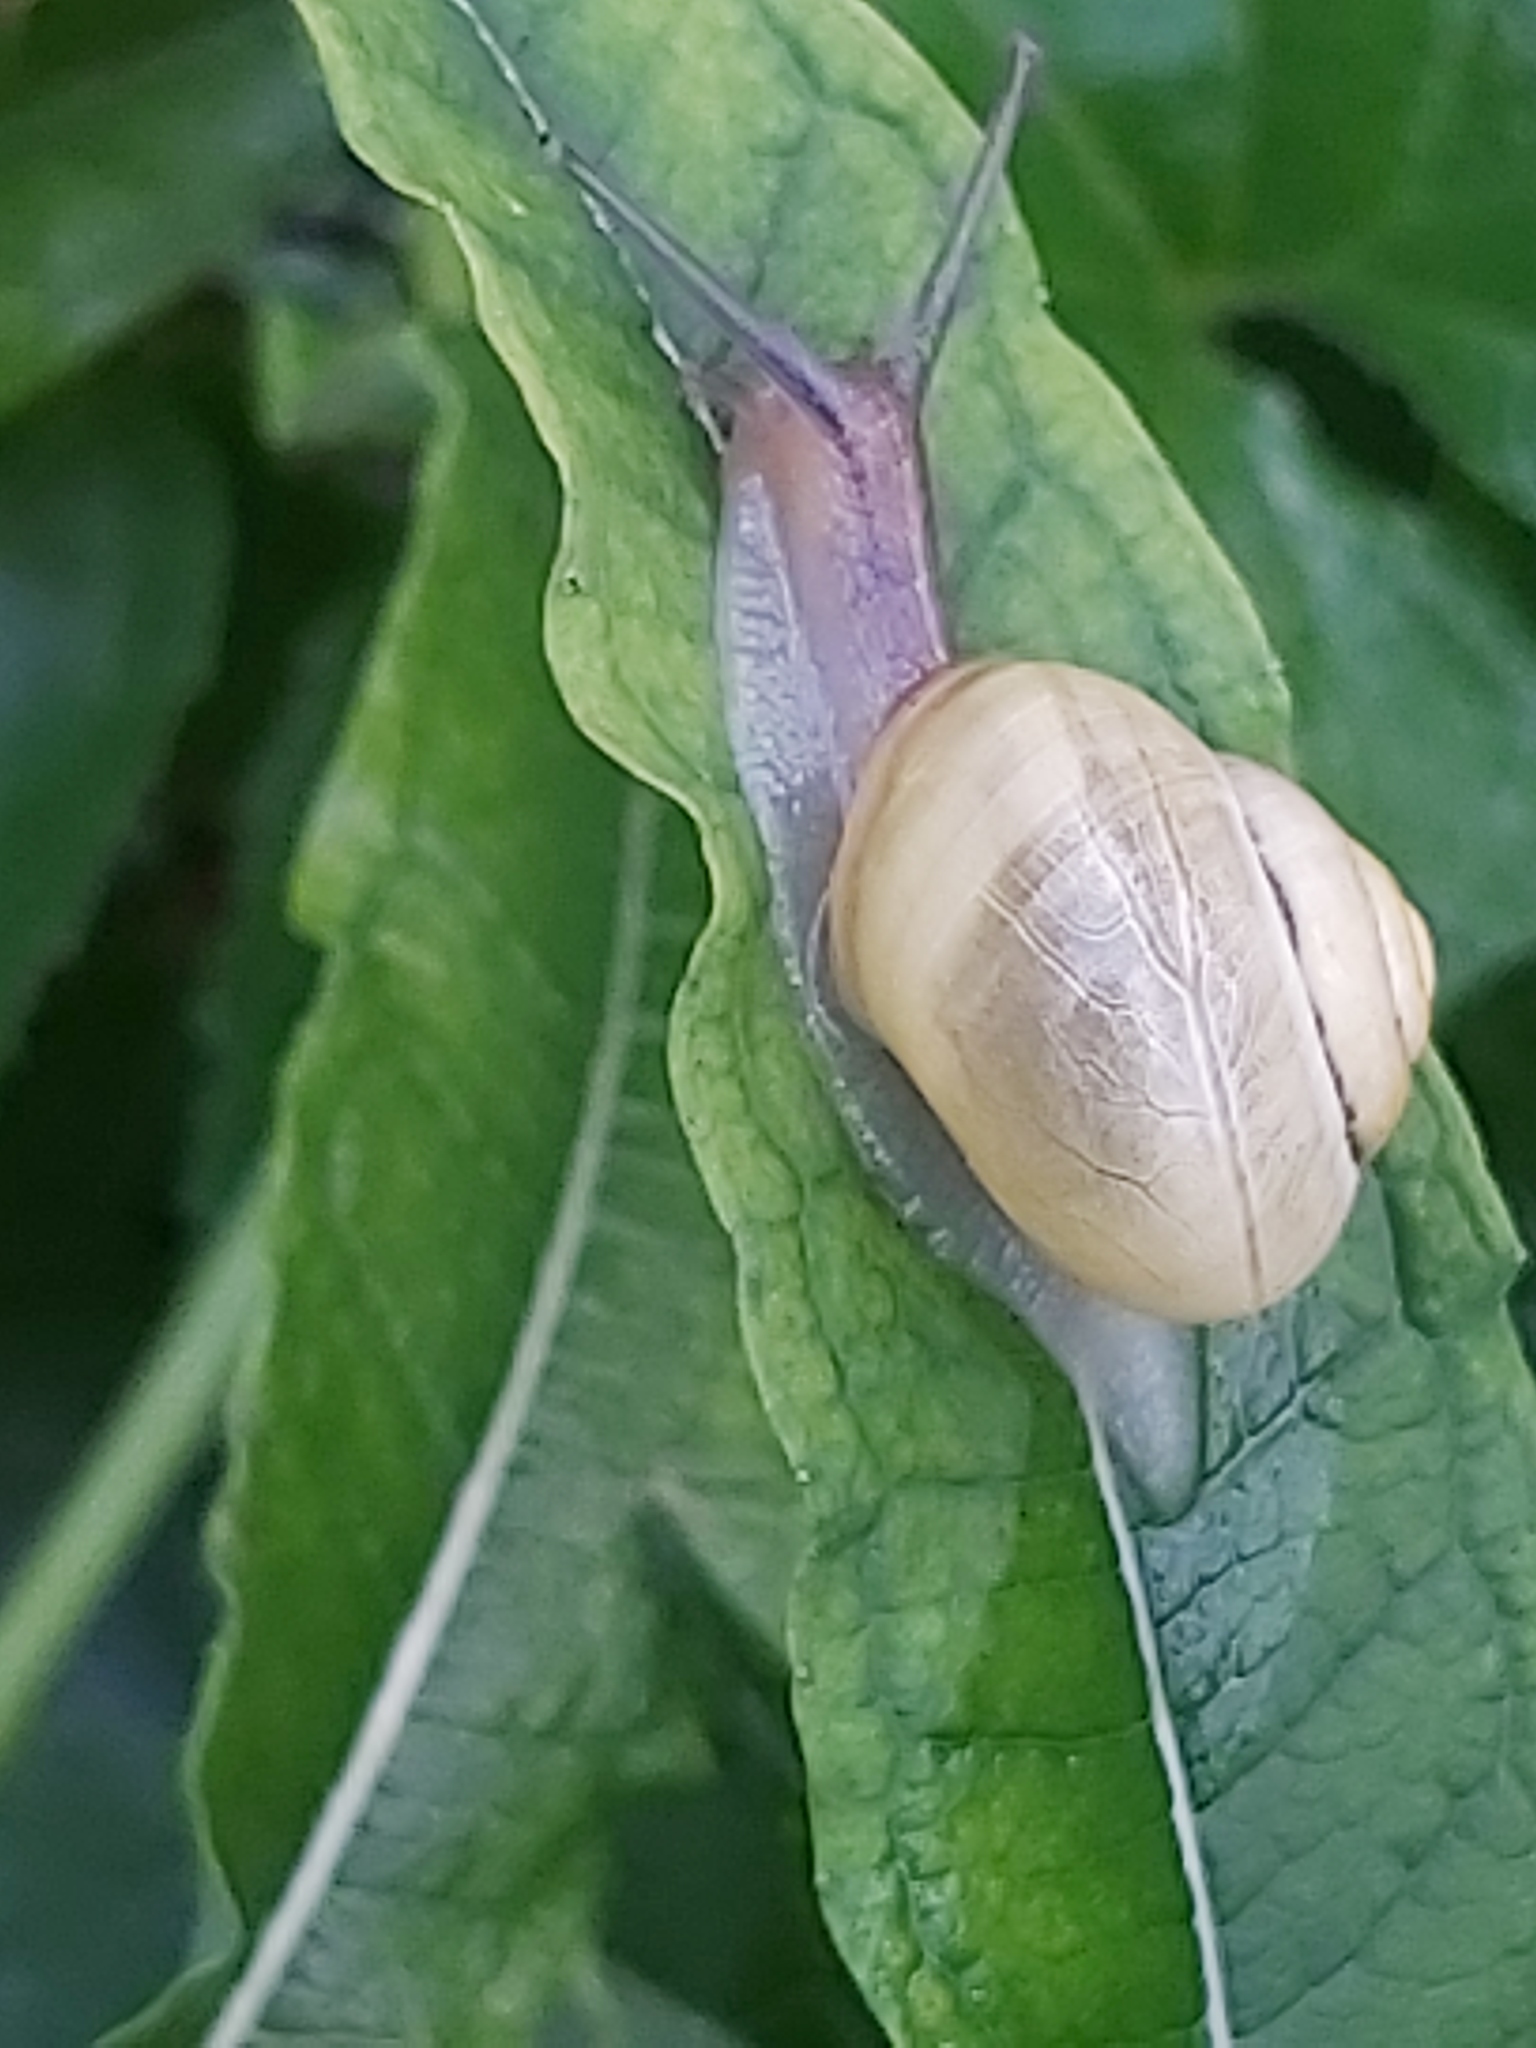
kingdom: Animalia
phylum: Mollusca
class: Gastropoda
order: Stylommatophora
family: Helicidae
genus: Cepaea
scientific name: Cepaea
